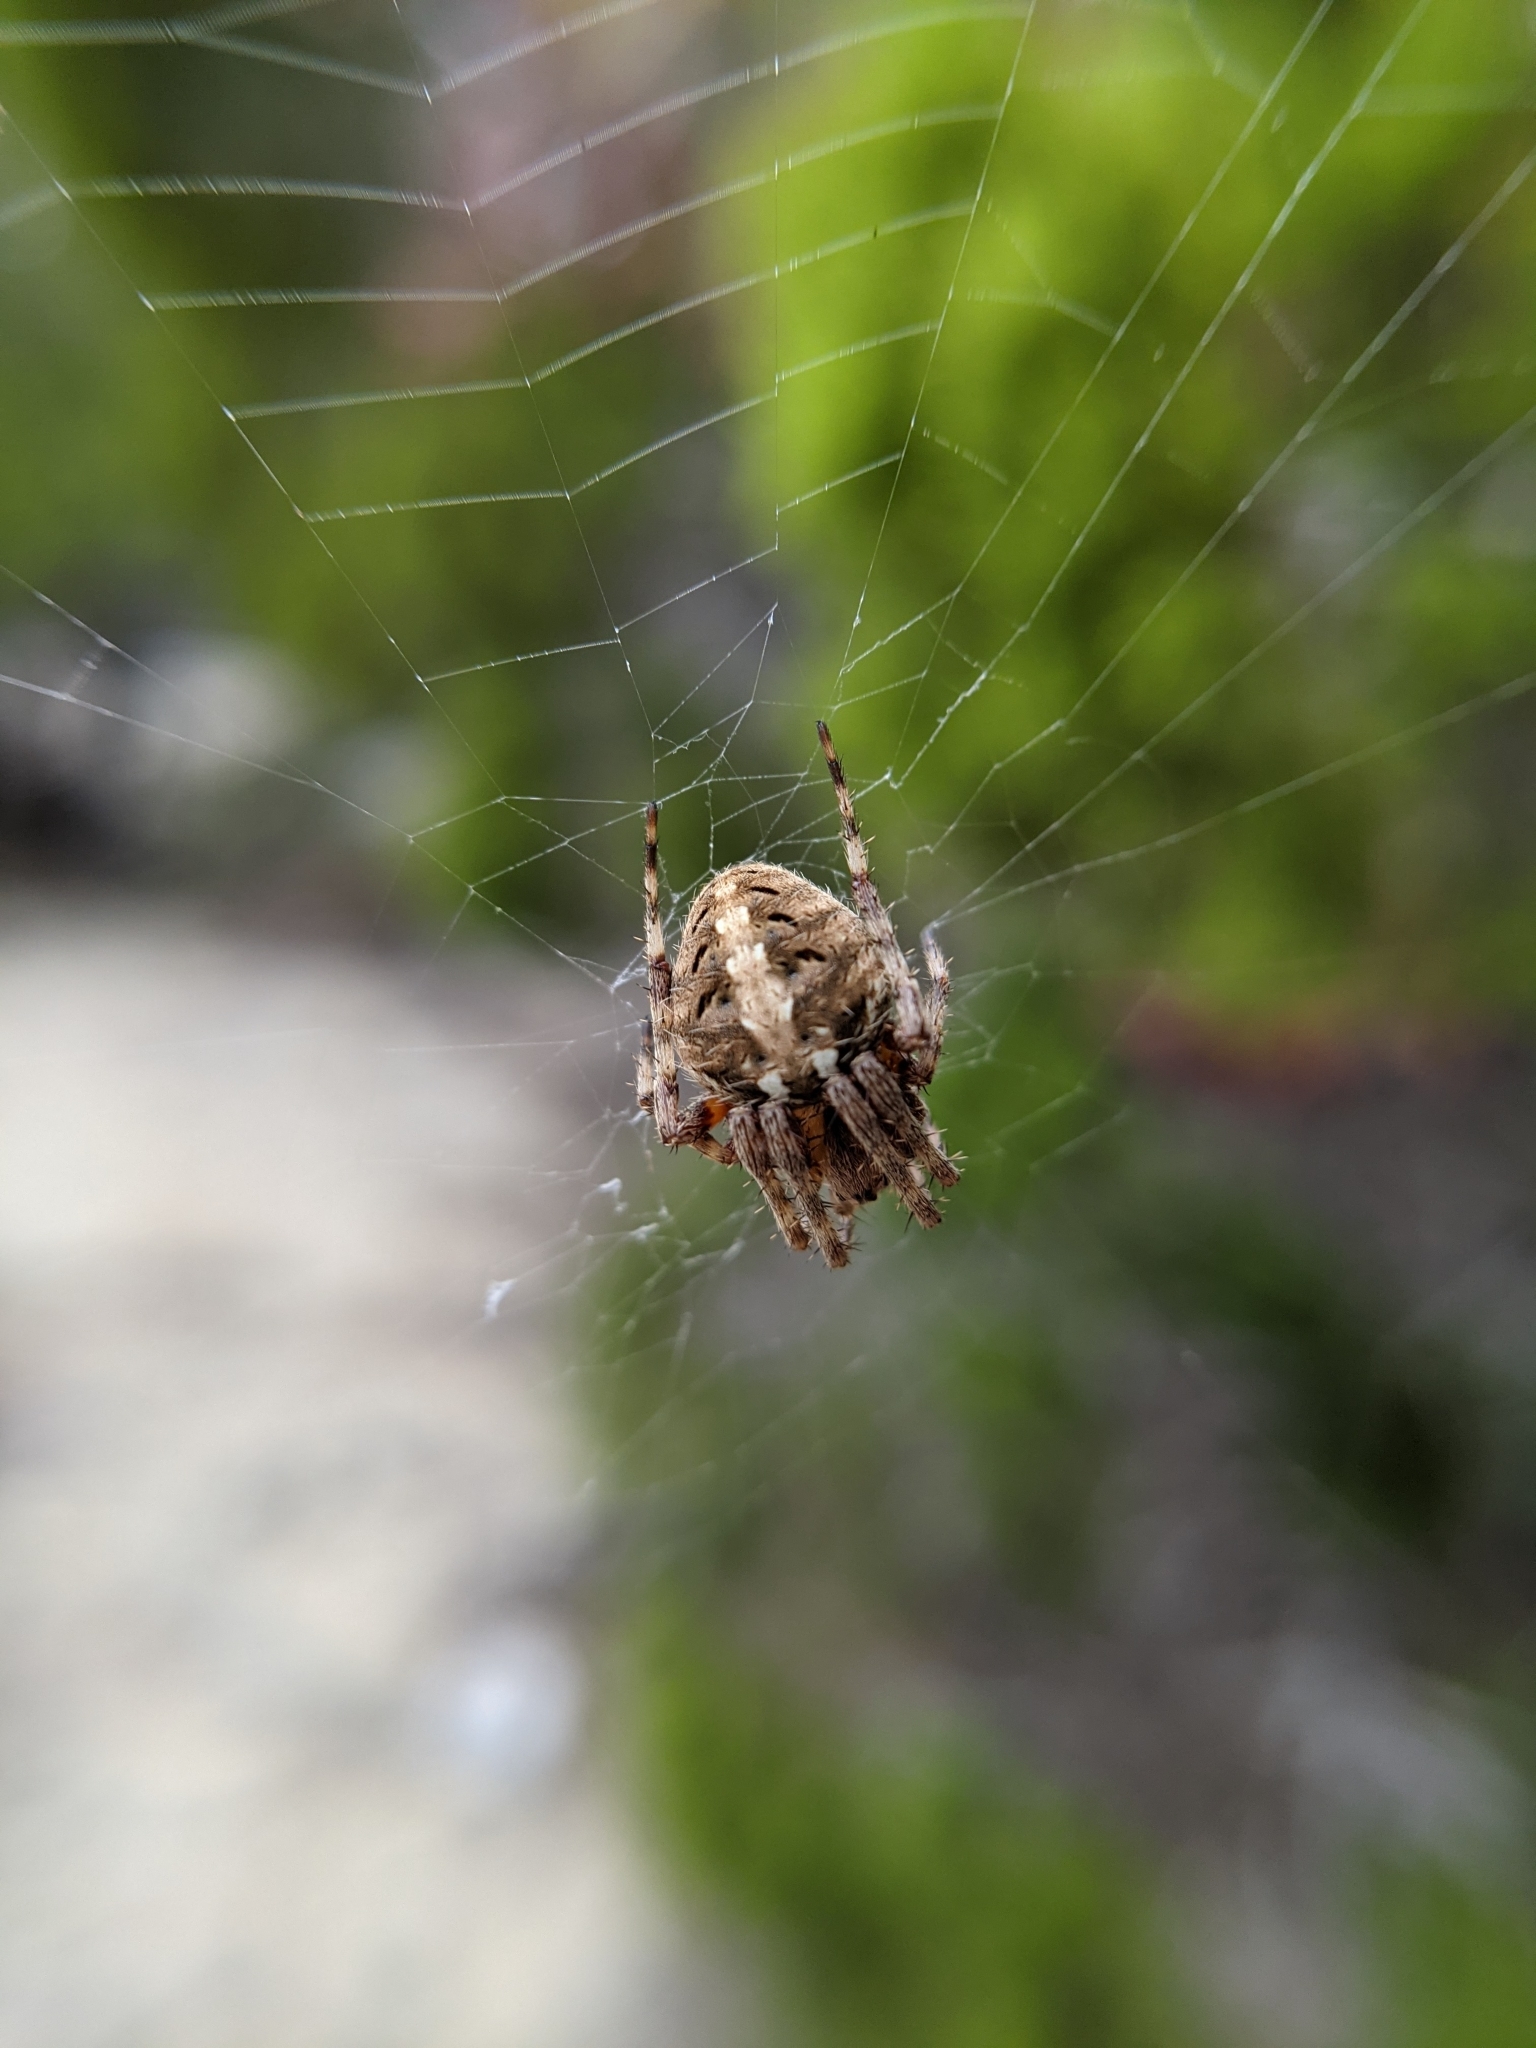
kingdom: Animalia
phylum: Arthropoda
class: Arachnida
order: Araneae
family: Araneidae
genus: Neoscona
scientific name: Neoscona arabesca
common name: Orb weavers
